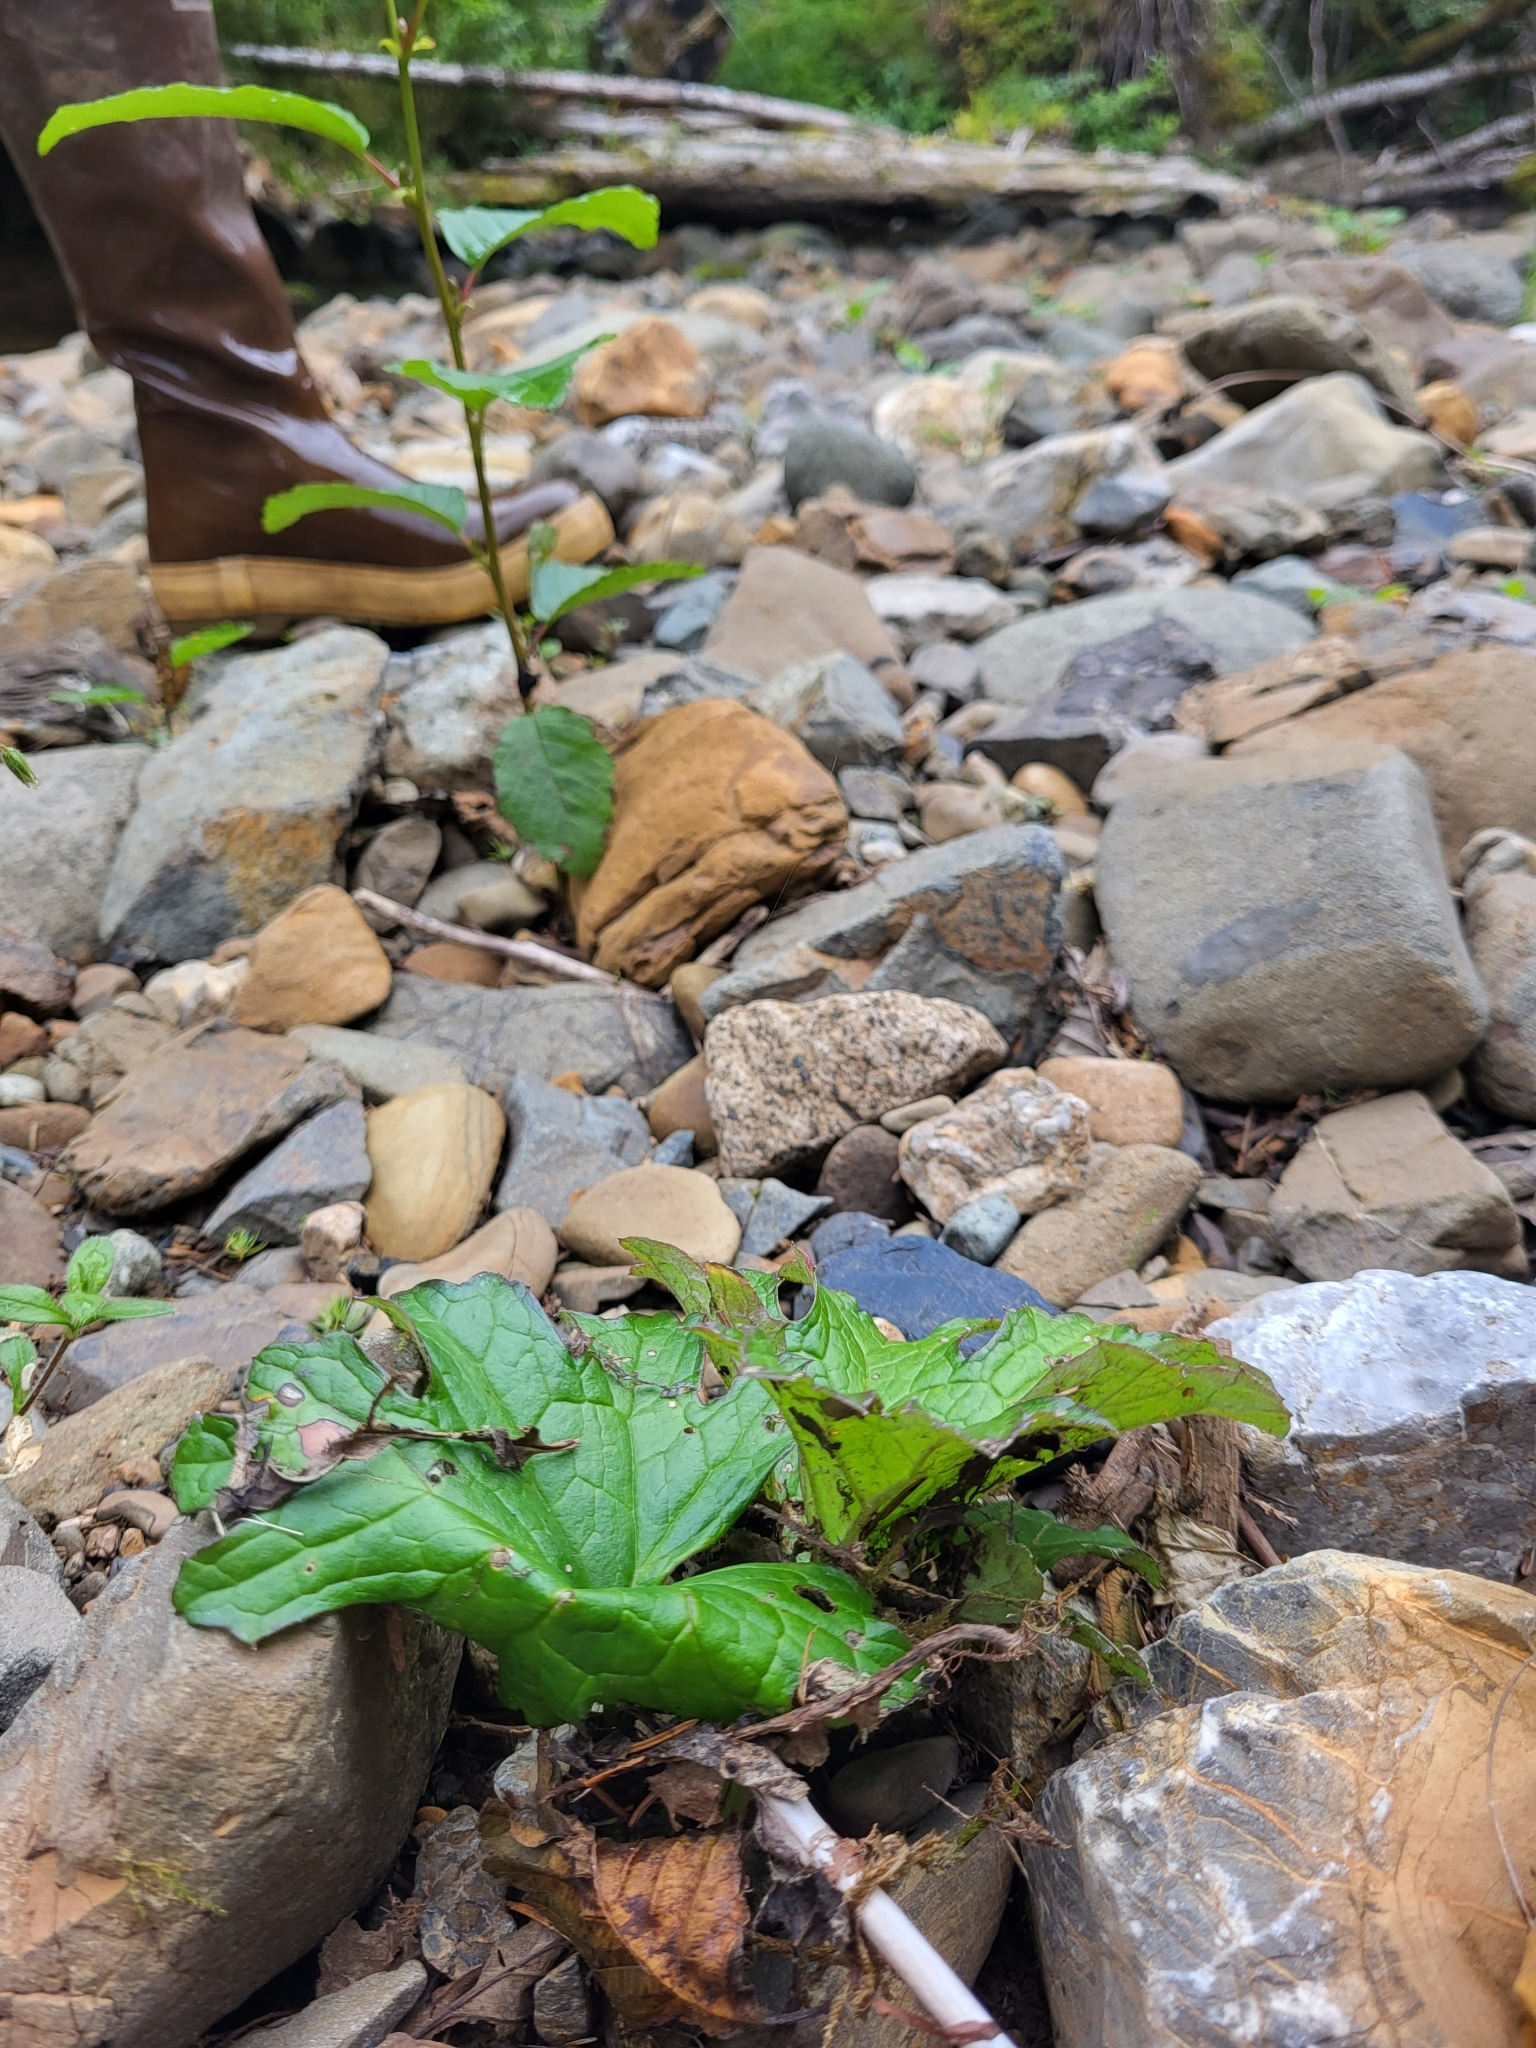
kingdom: Plantae
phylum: Tracheophyta
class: Magnoliopsida
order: Asterales
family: Asteraceae
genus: Petasites
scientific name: Petasites frigidus
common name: Arctic butterbur
